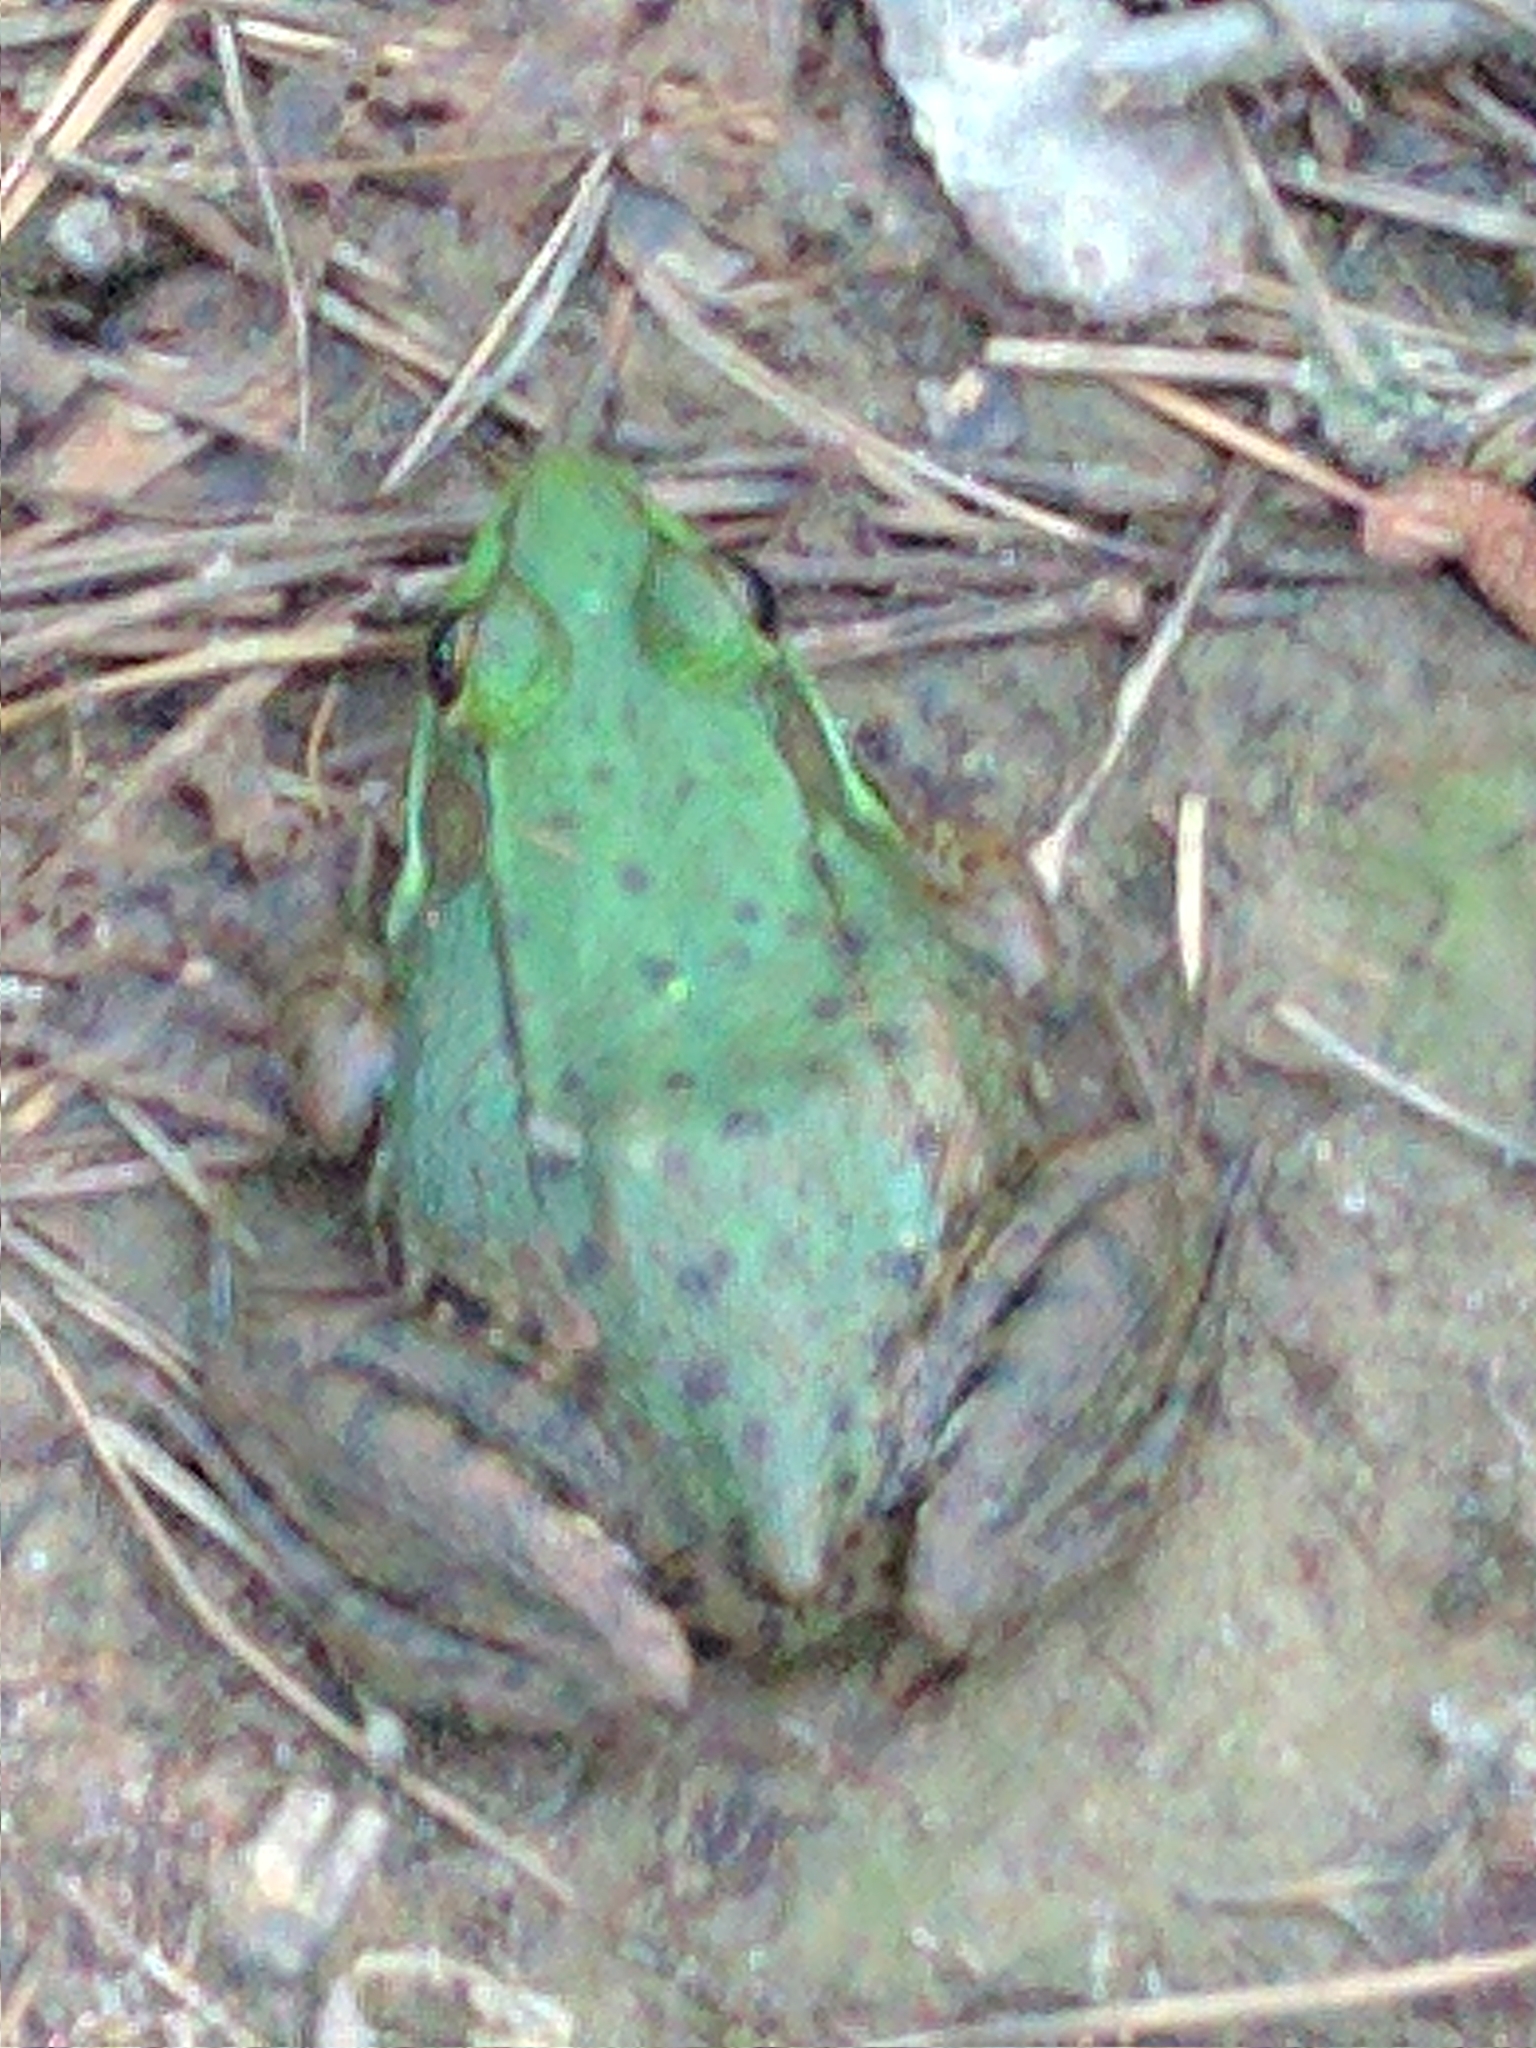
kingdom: Animalia
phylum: Chordata
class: Amphibia
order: Anura
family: Ranidae
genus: Lithobates
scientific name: Lithobates clamitans
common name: Green frog
